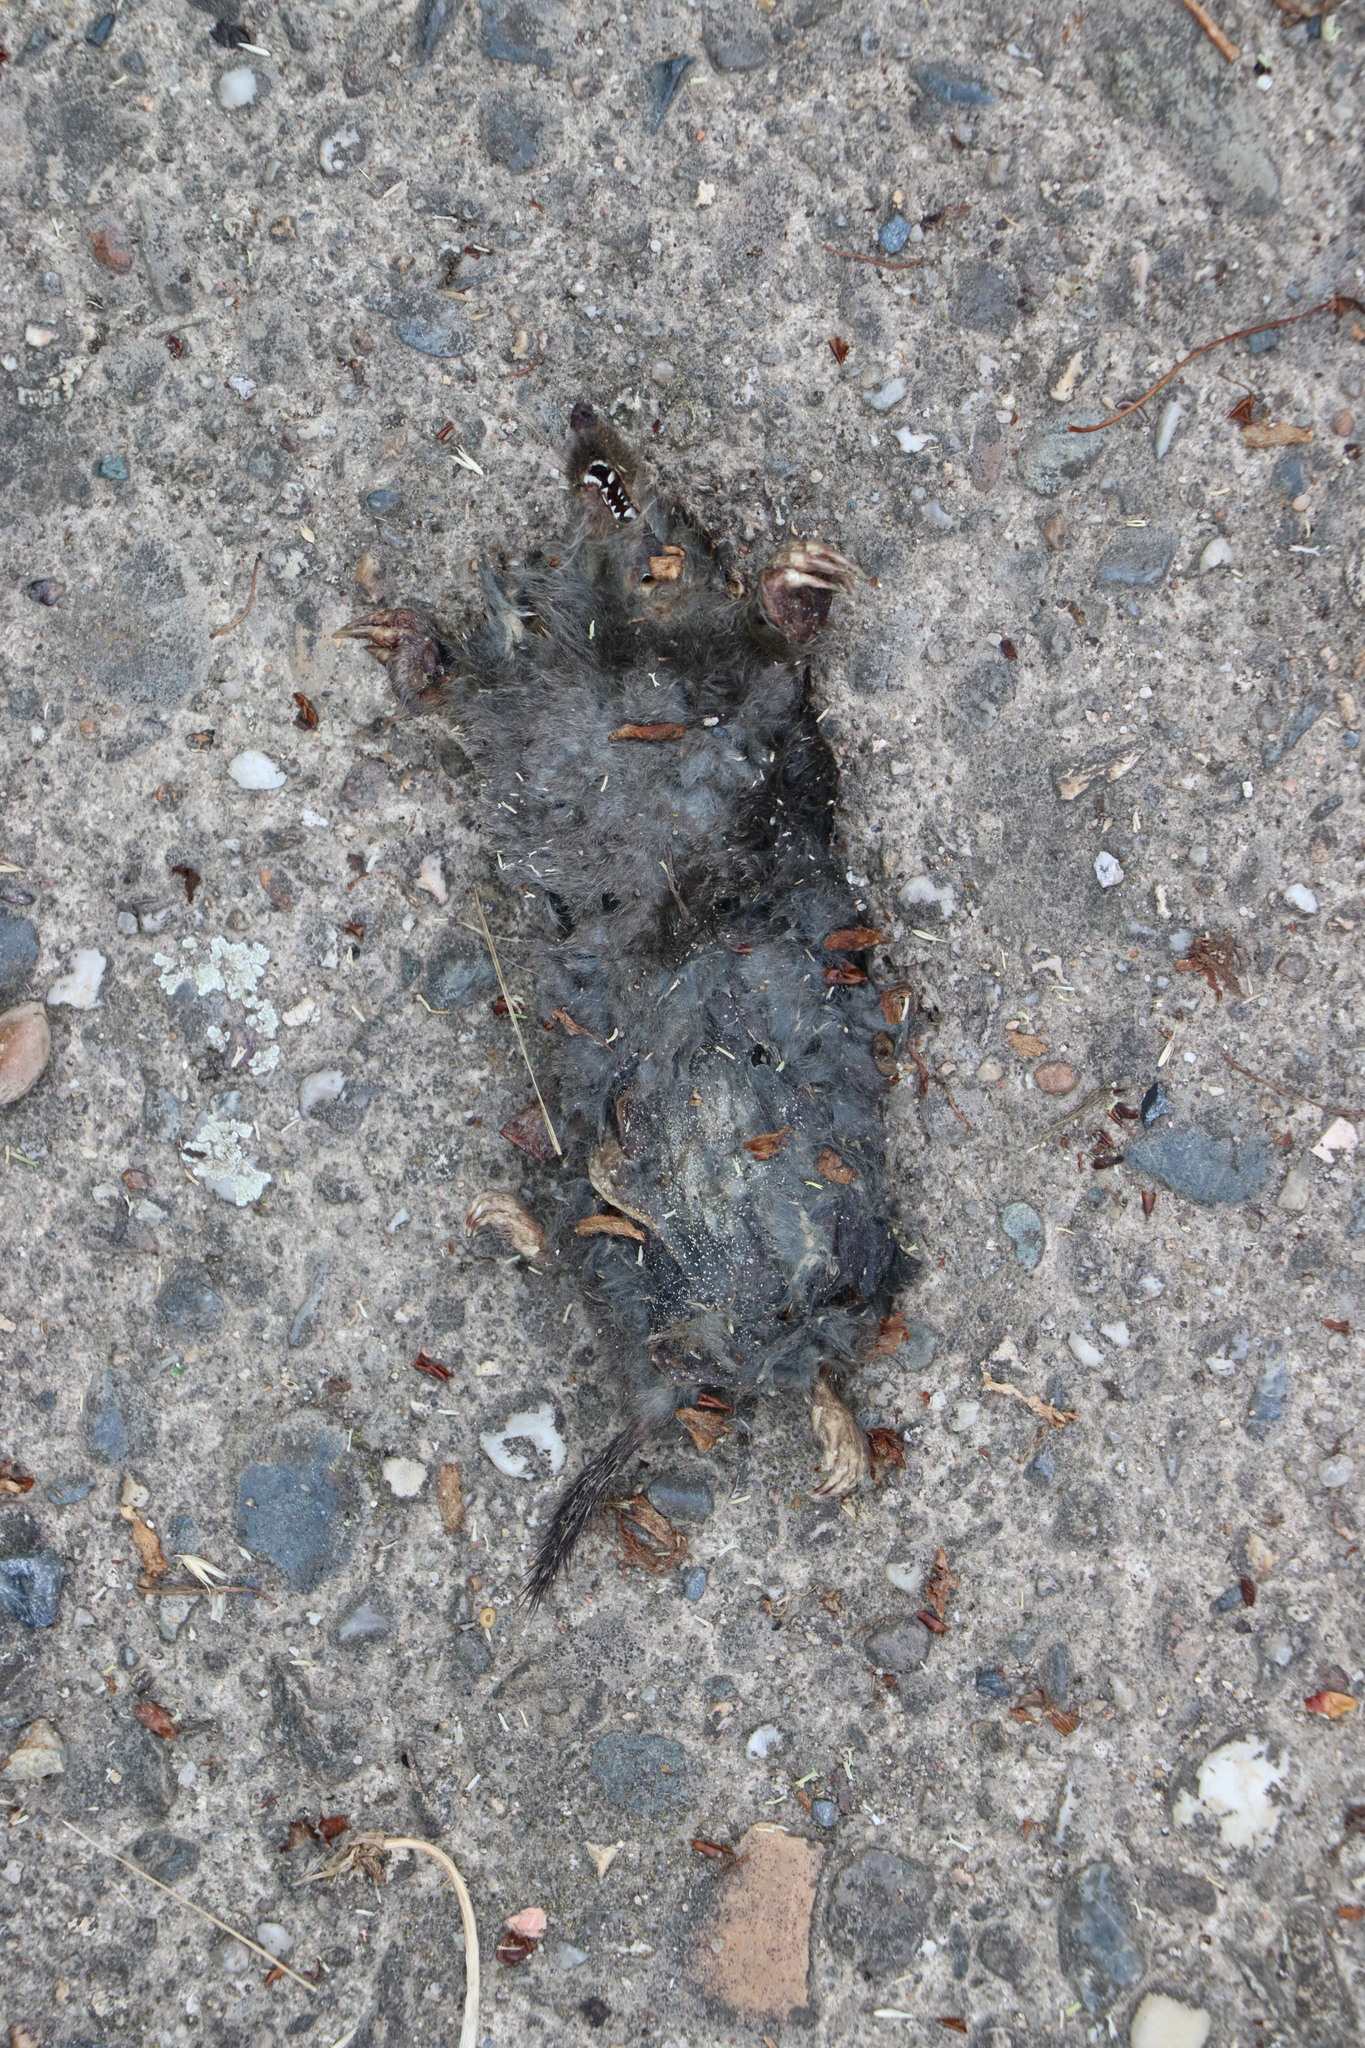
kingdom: Animalia
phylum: Chordata
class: Mammalia
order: Soricomorpha
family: Talpidae
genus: Talpa
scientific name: Talpa europaea
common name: European mole
